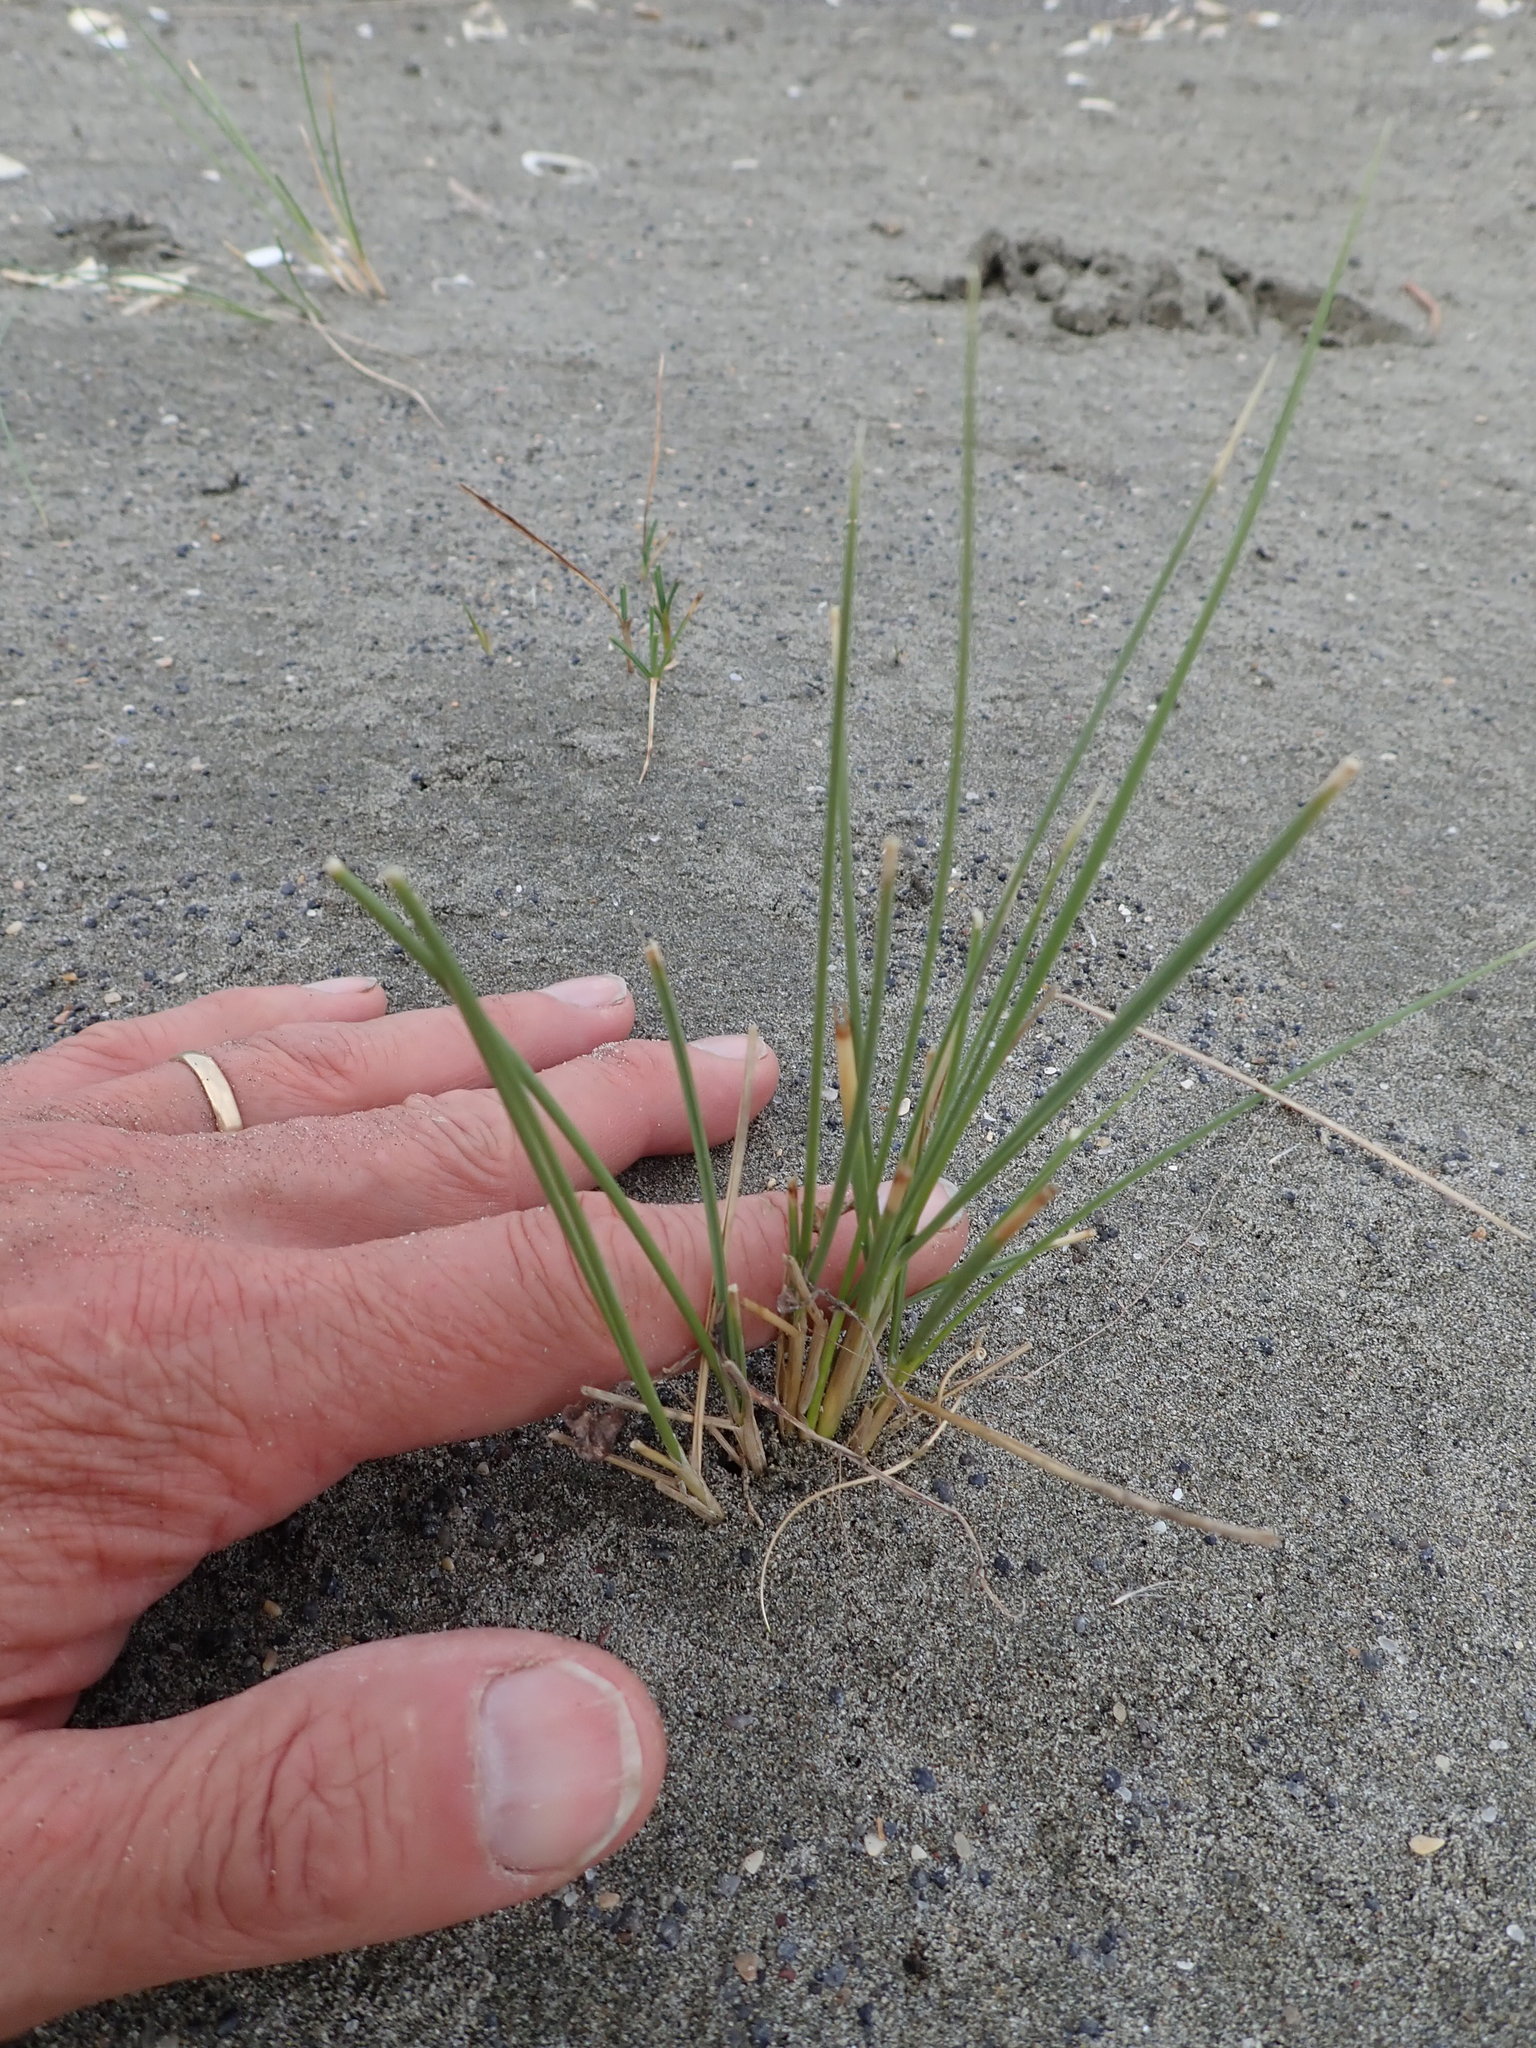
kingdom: Plantae
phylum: Tracheophyta
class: Liliopsida
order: Poales
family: Poaceae
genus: Calamagrostis
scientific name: Calamagrostis arenaria
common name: European beachgrass
